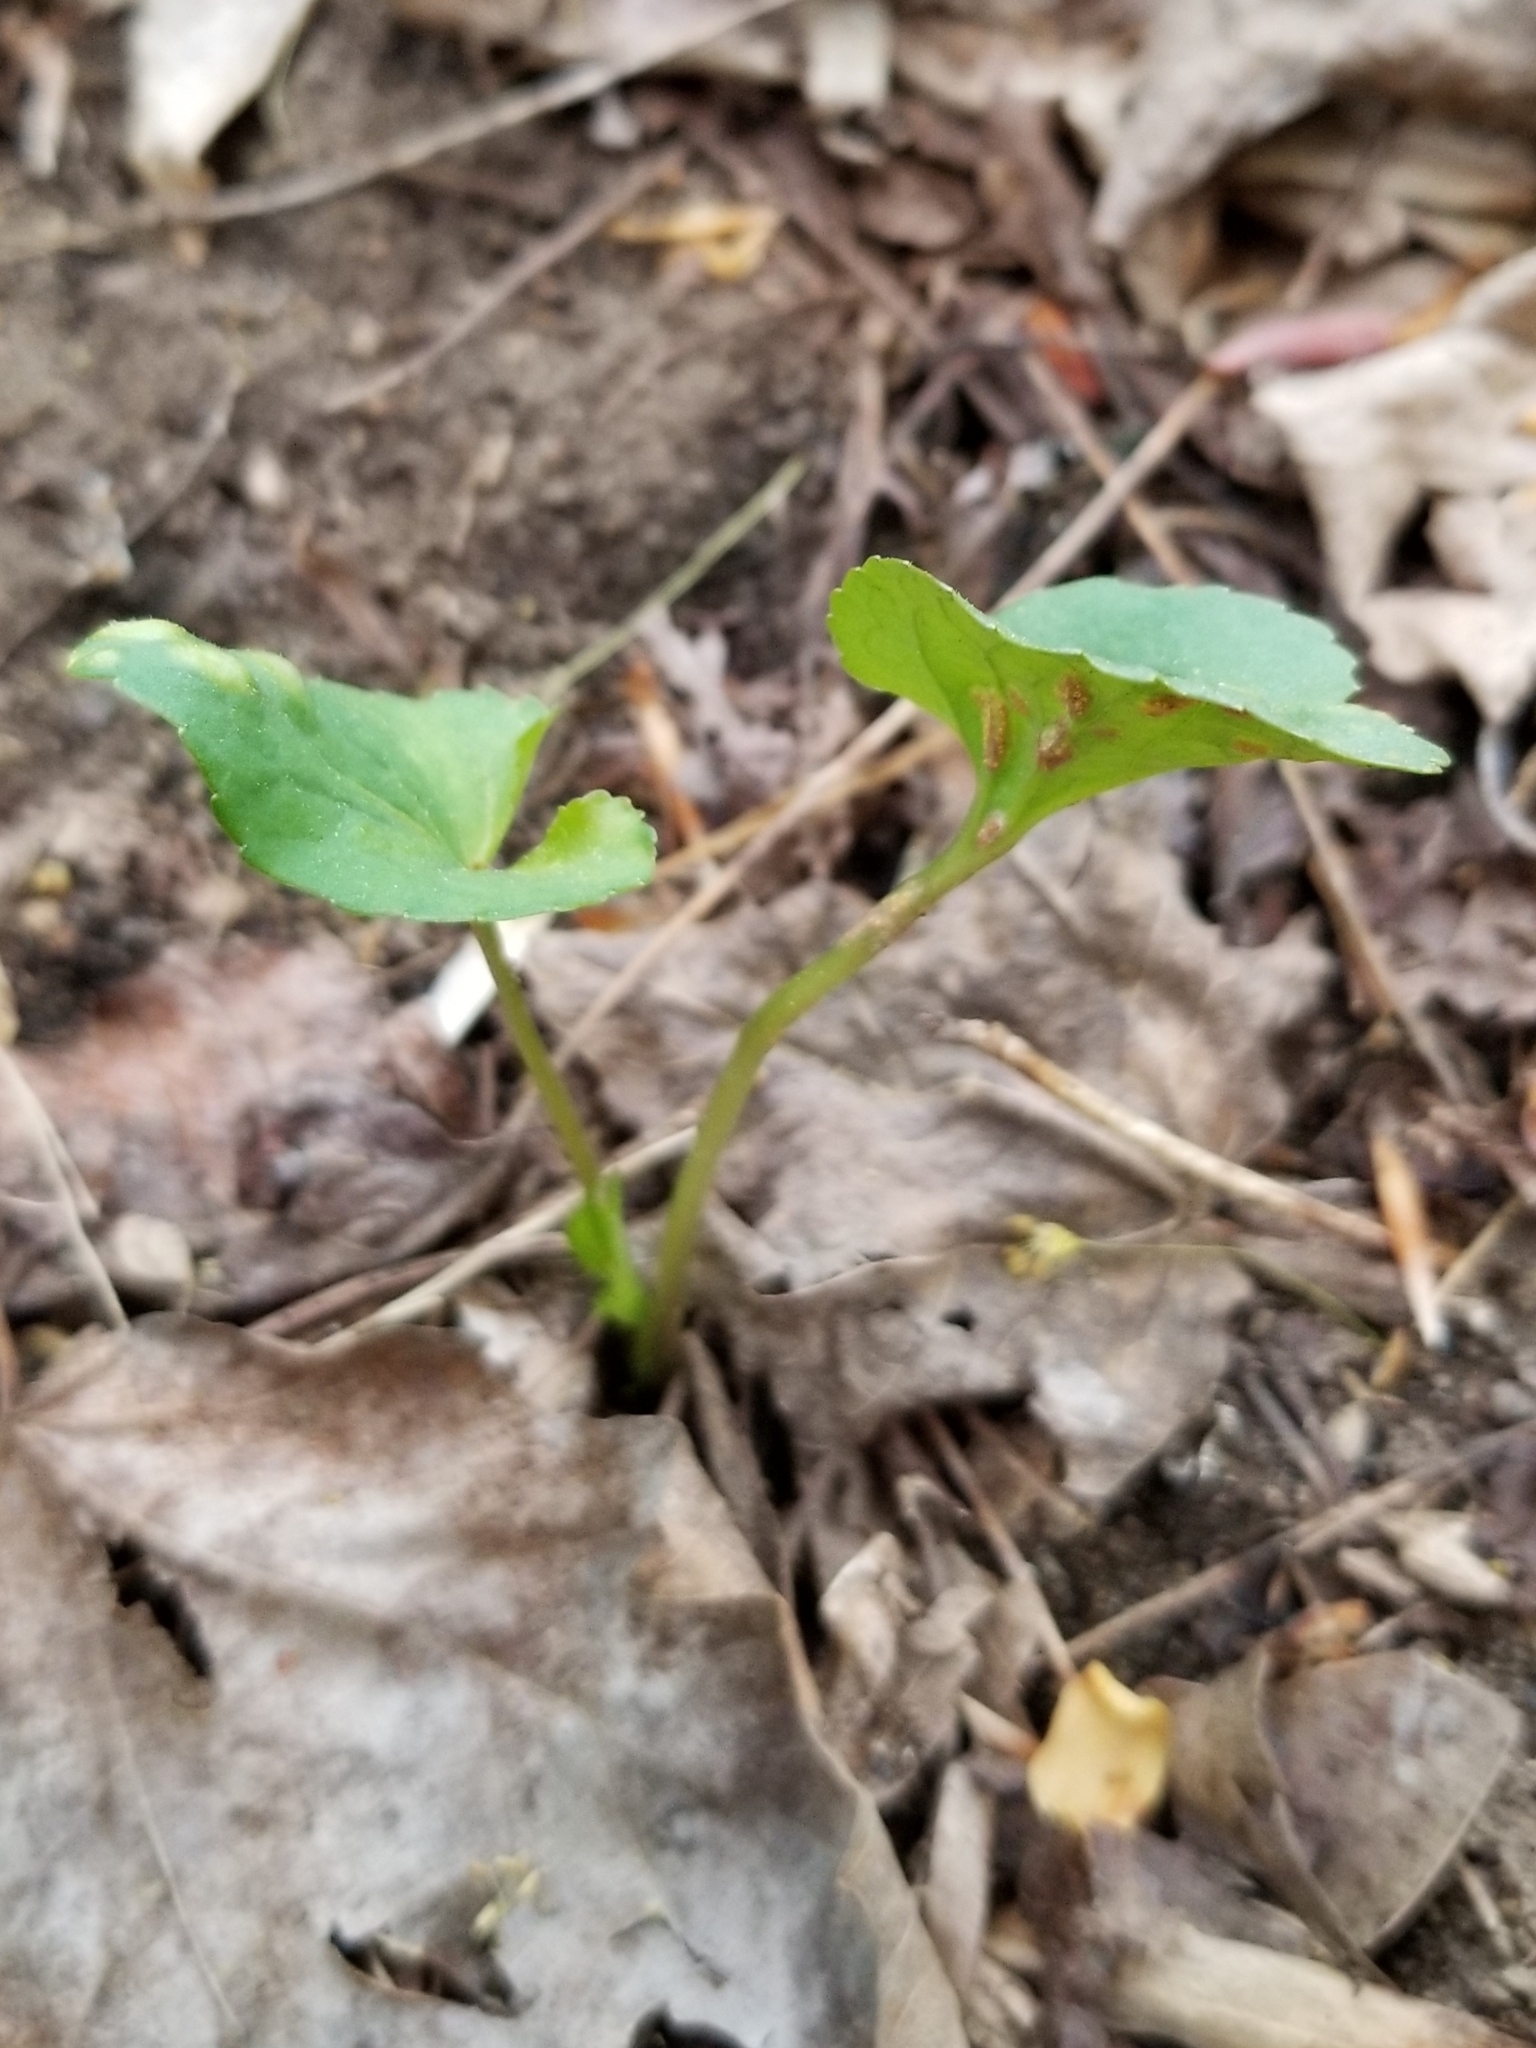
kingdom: Fungi
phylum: Basidiomycota
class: Pucciniomycetes
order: Pucciniales
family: Pucciniaceae
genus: Puccinia
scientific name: Puccinia violae
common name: Violet rust
